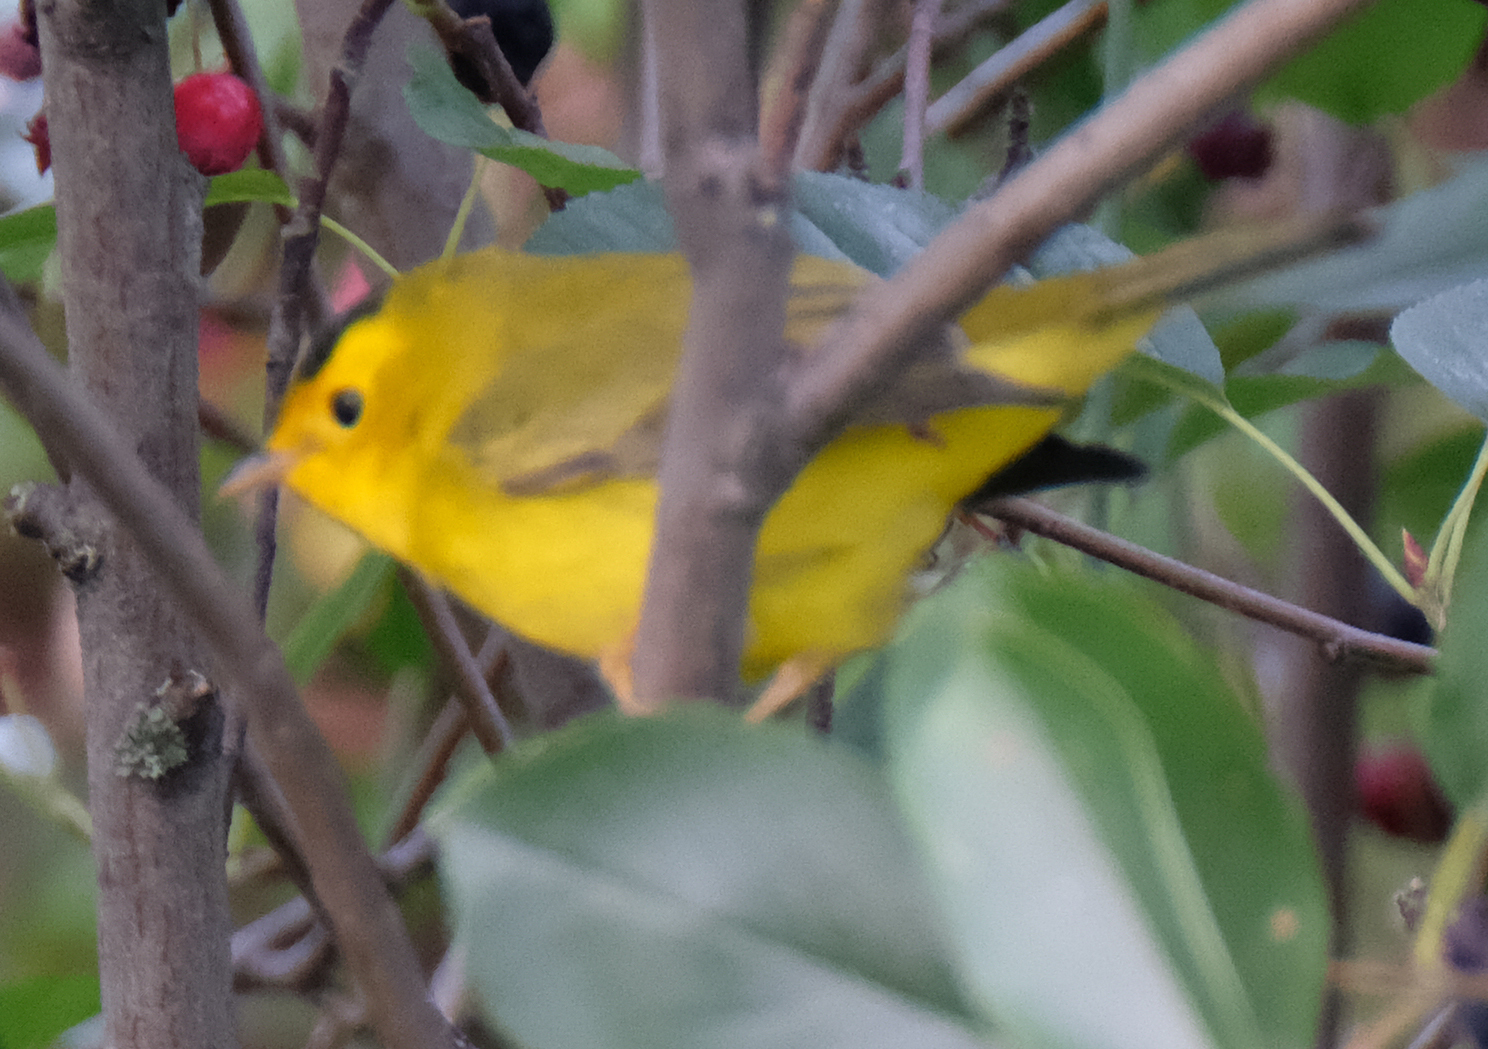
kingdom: Animalia
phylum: Chordata
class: Aves
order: Passeriformes
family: Parulidae
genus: Cardellina
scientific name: Cardellina pusilla
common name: Wilson's warbler
